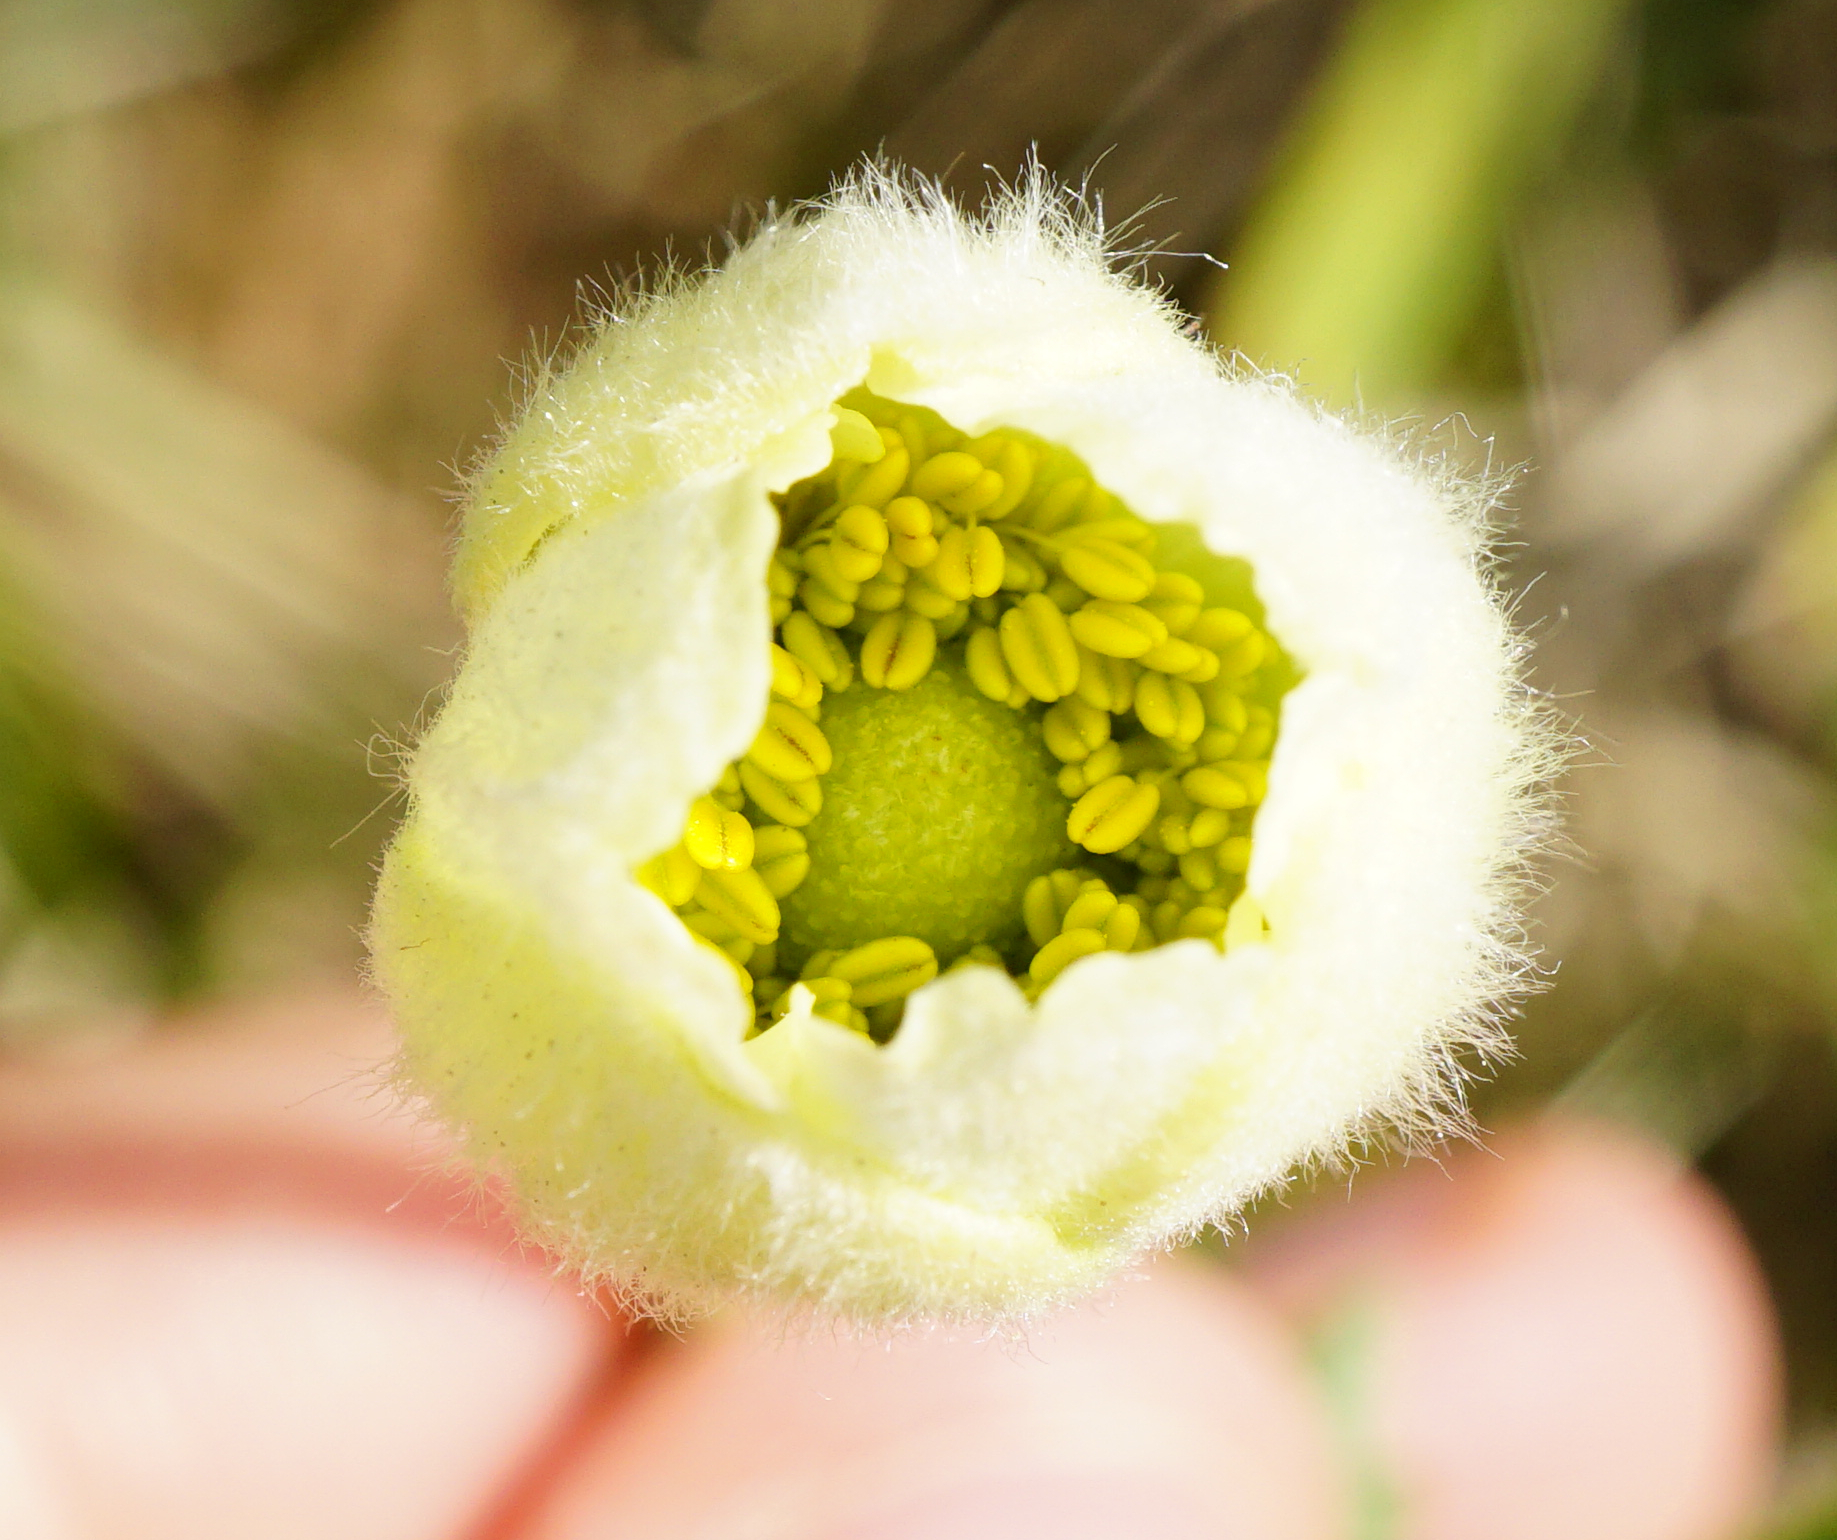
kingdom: Plantae
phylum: Tracheophyta
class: Magnoliopsida
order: Ranunculales
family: Ranunculaceae
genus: Anemone
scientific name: Anemone sylvestris
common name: Snowdrop anemone
